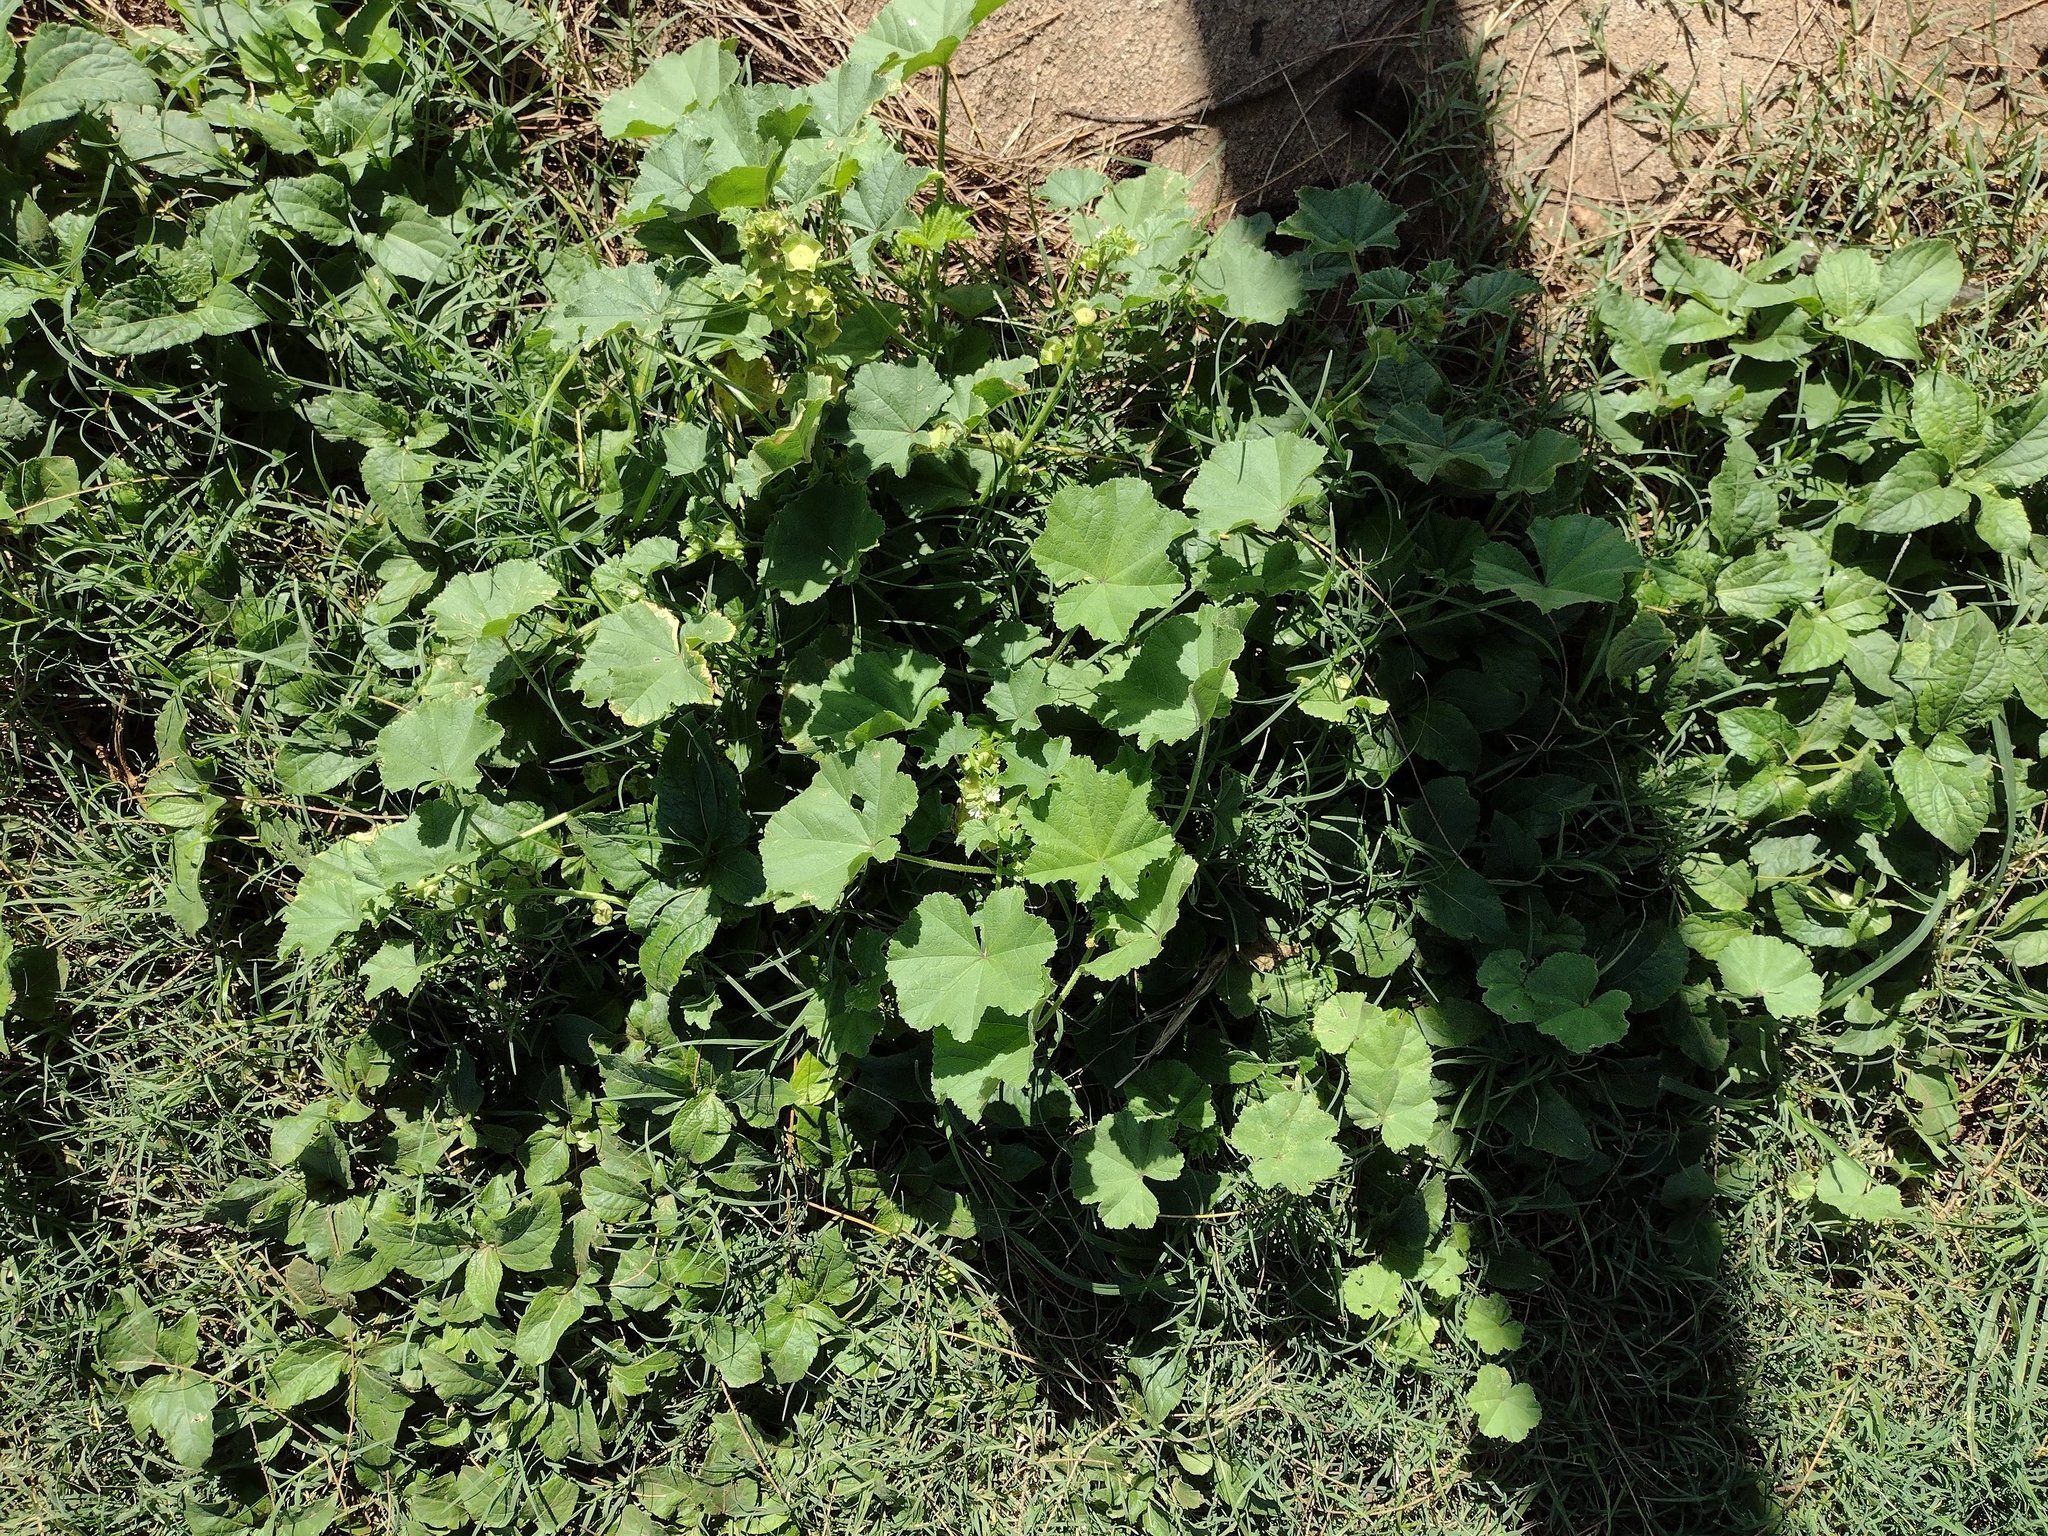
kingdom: Plantae
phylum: Tracheophyta
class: Magnoliopsida
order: Malvales
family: Malvaceae
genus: Malva
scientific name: Malva parviflora
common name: Least mallow
